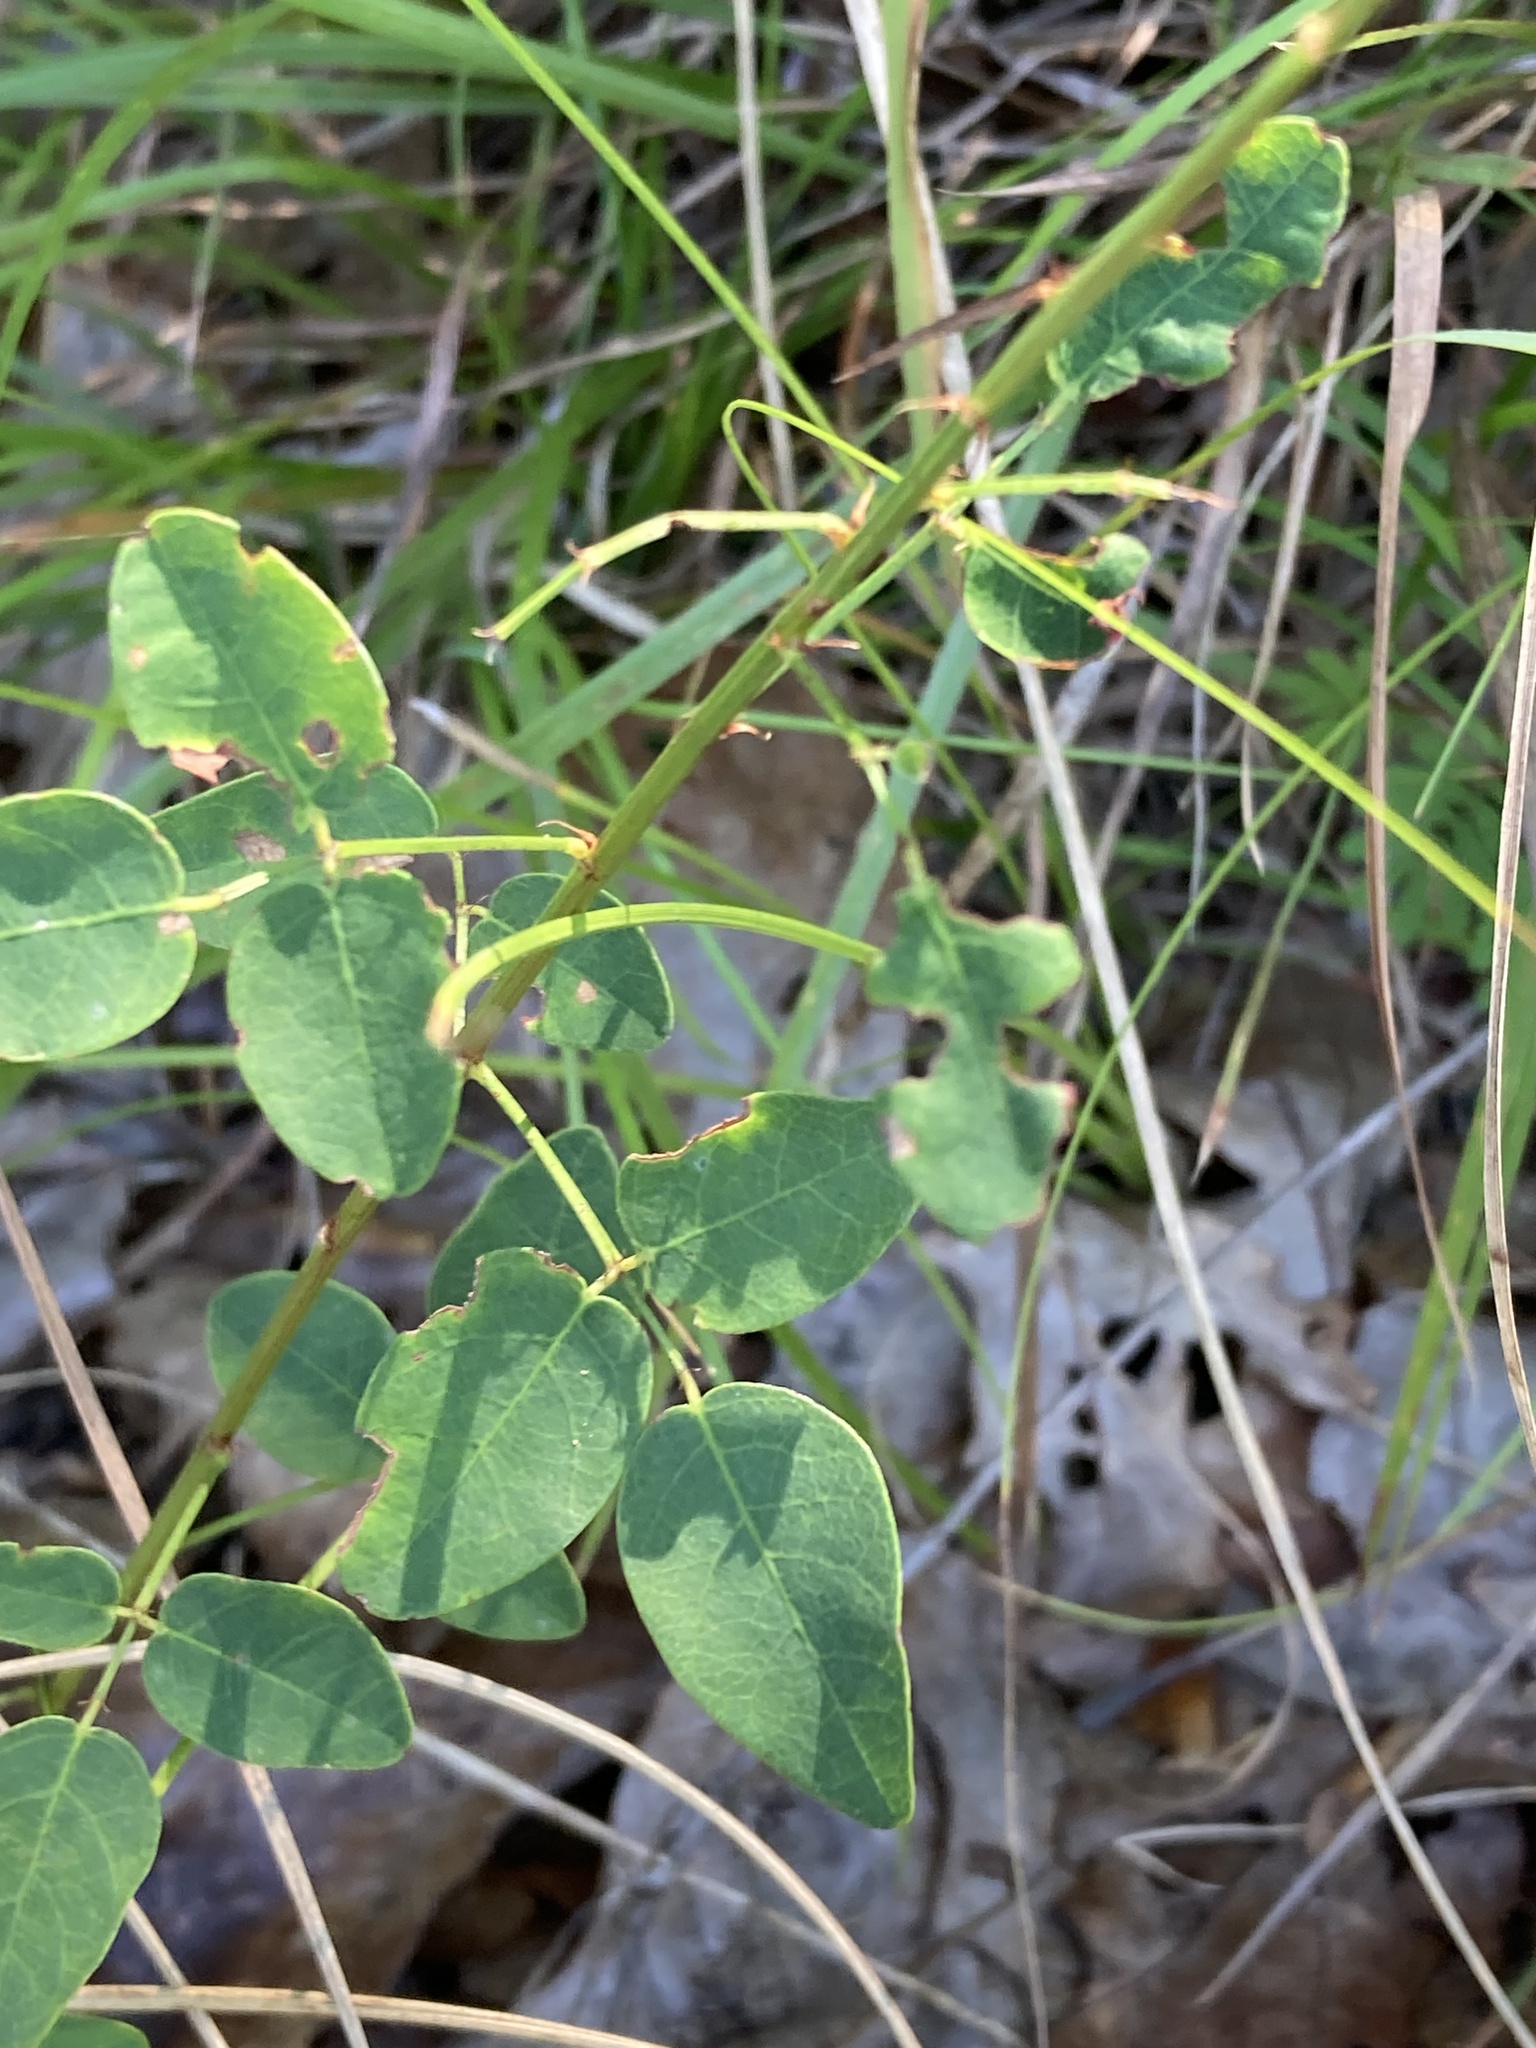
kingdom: Plantae
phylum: Tracheophyta
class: Magnoliopsida
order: Fabales
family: Fabaceae
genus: Desmodium
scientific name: Desmodium marilandicum
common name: Maryland tick-trefoil
